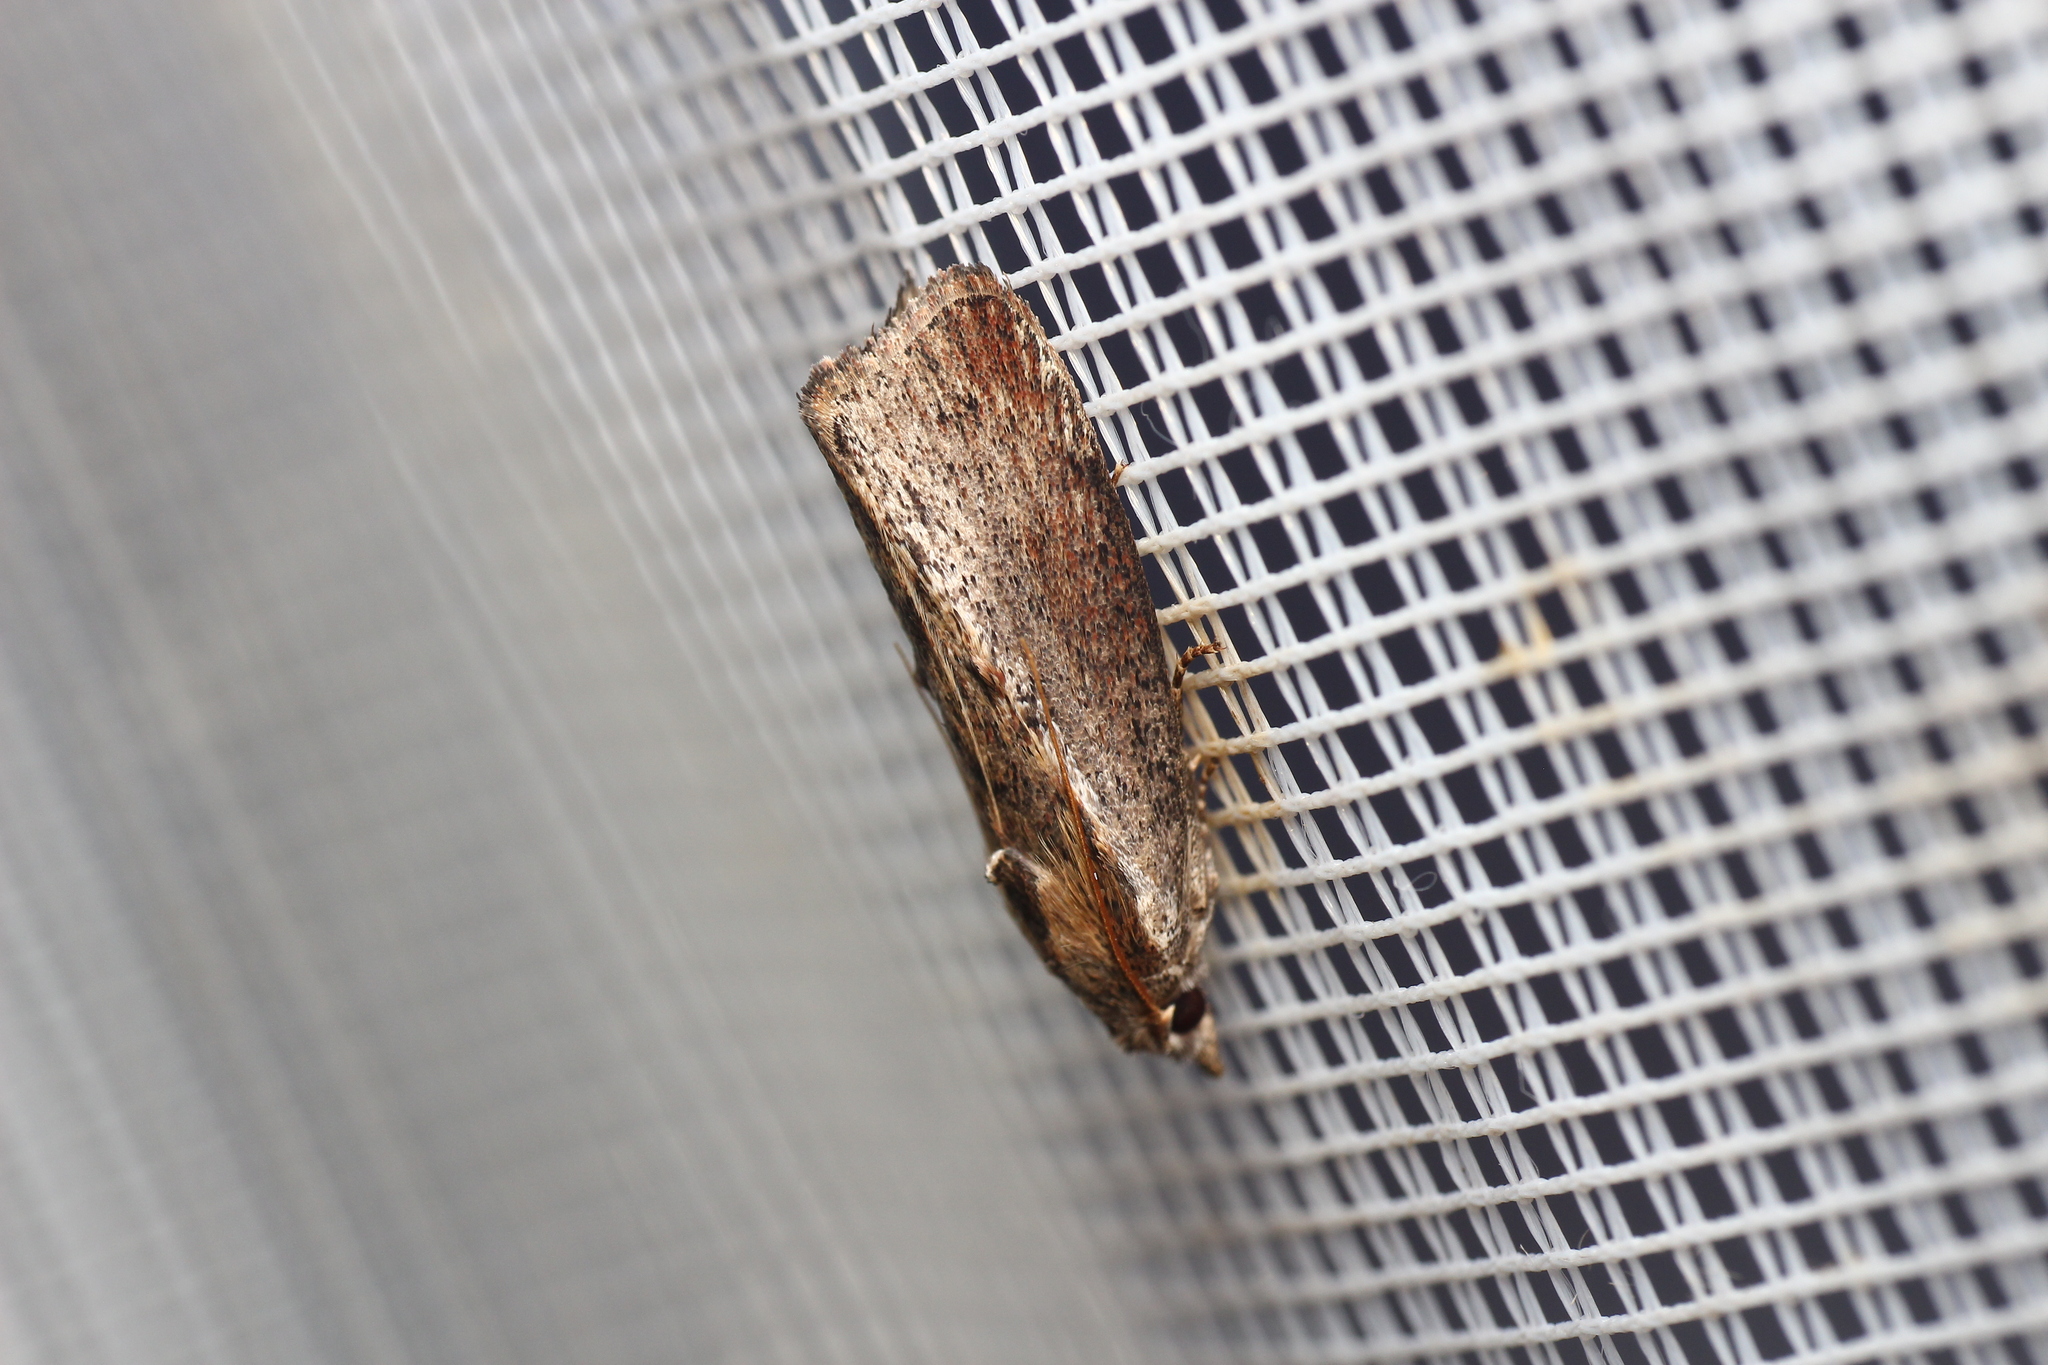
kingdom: Animalia
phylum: Arthropoda
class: Insecta
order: Lepidoptera
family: Pyralidae
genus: Galleria
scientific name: Galleria mellonella
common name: Greater wax moth
